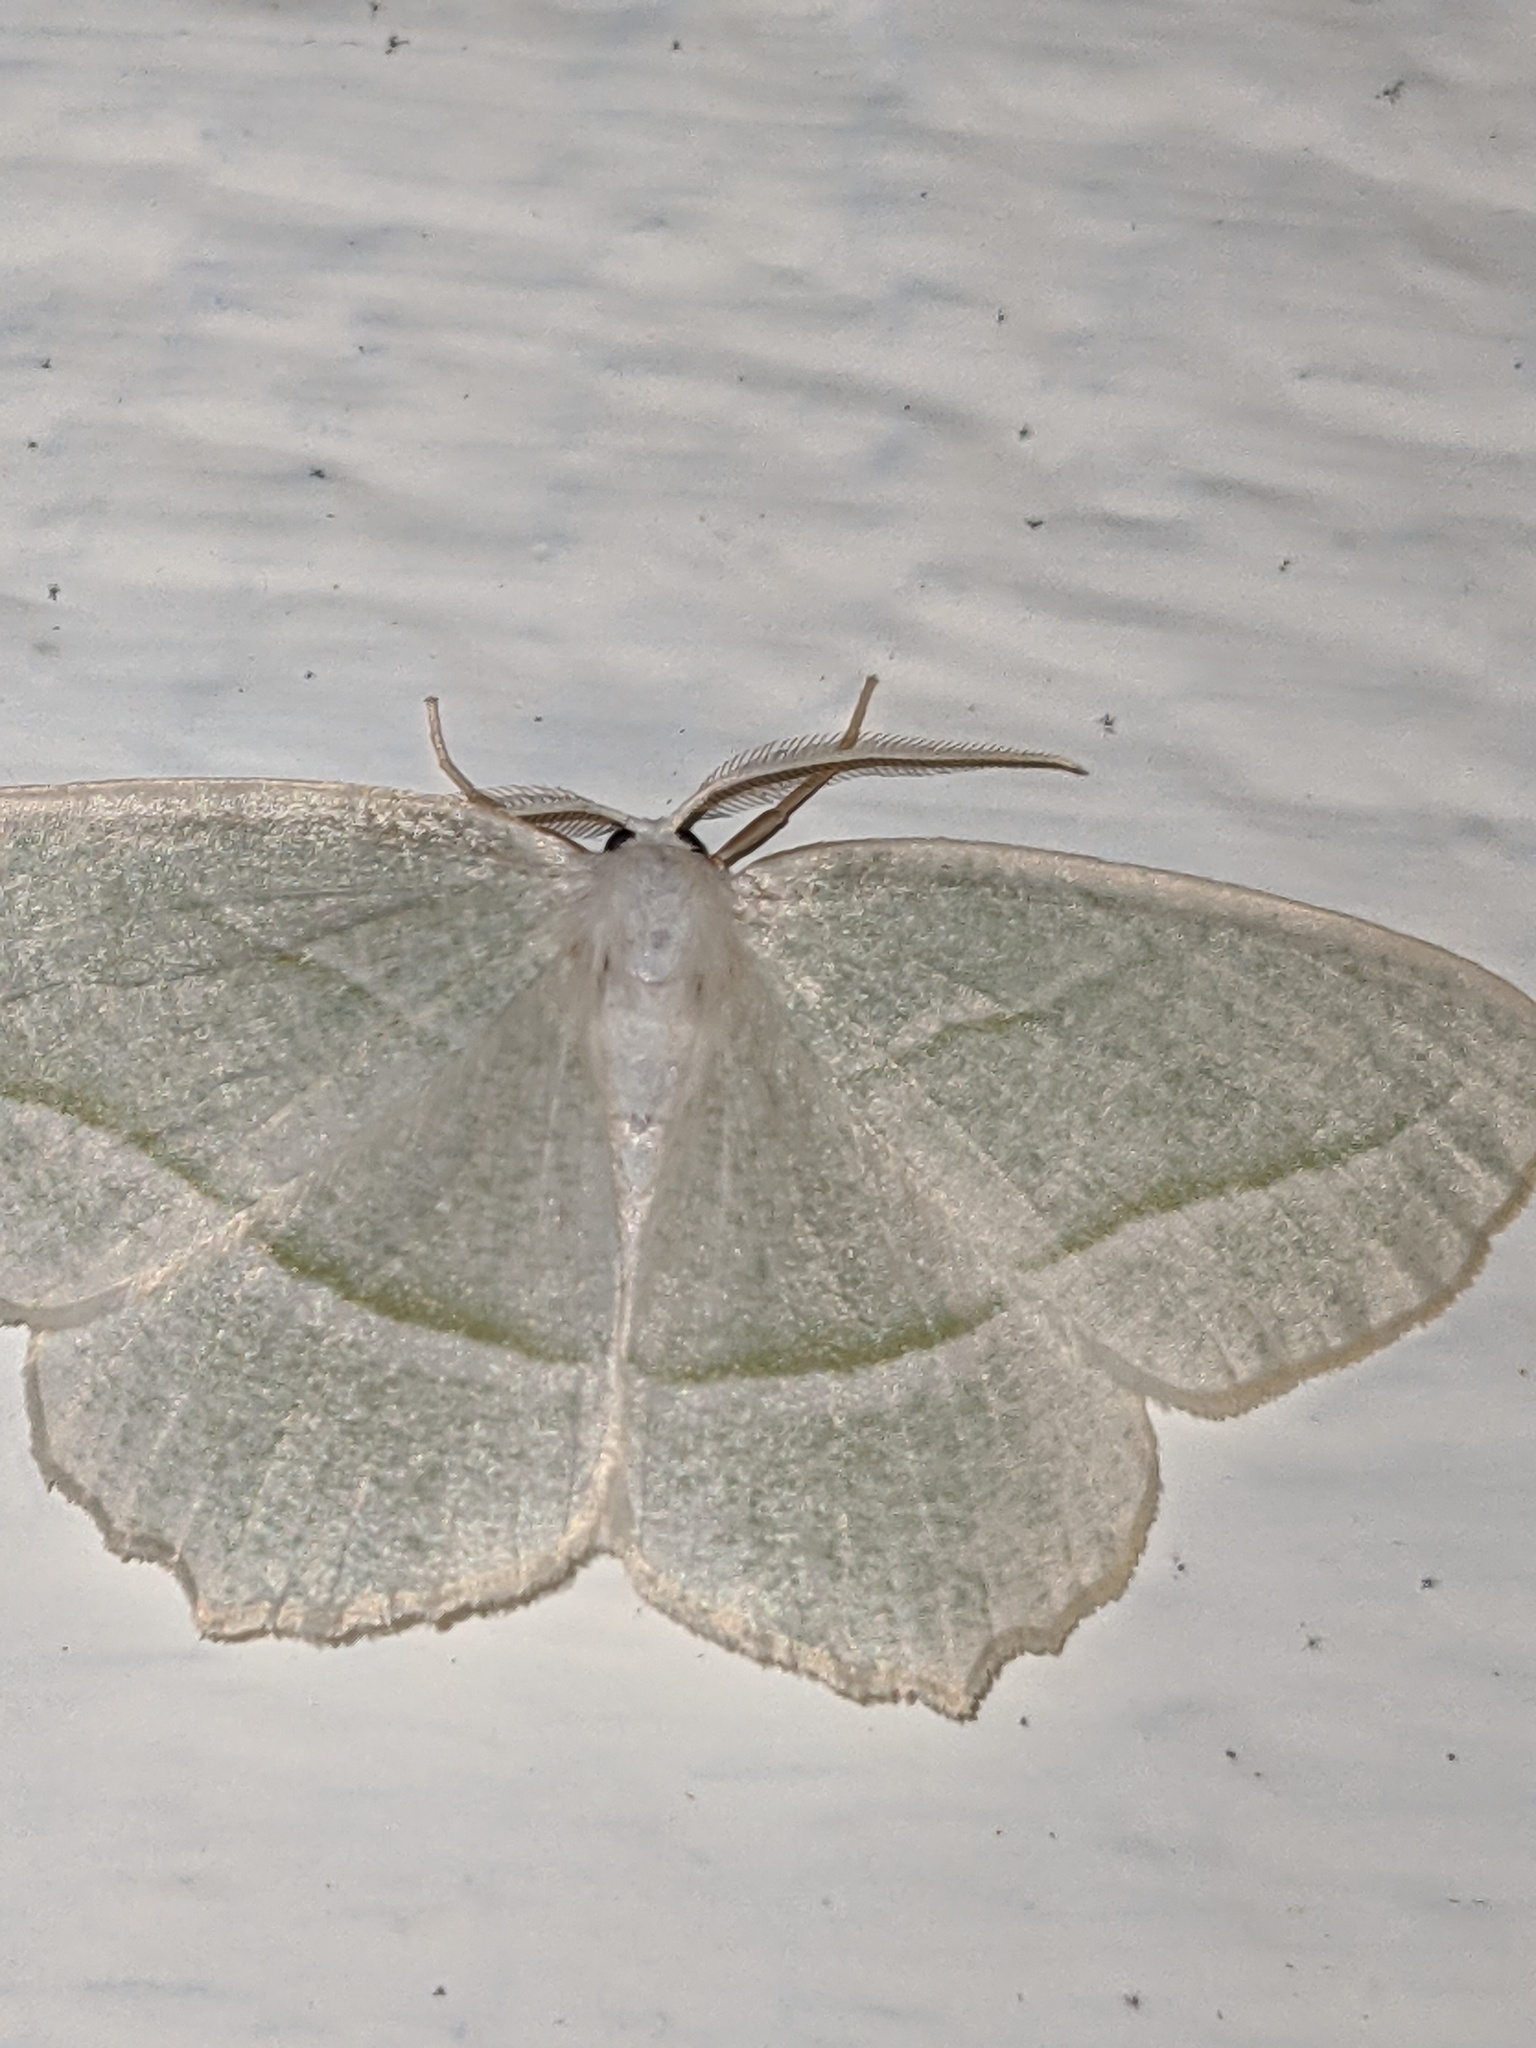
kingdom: Animalia
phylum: Arthropoda
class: Insecta
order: Lepidoptera
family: Geometridae
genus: Campaea
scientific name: Campaea perlata
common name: Fringed looper
